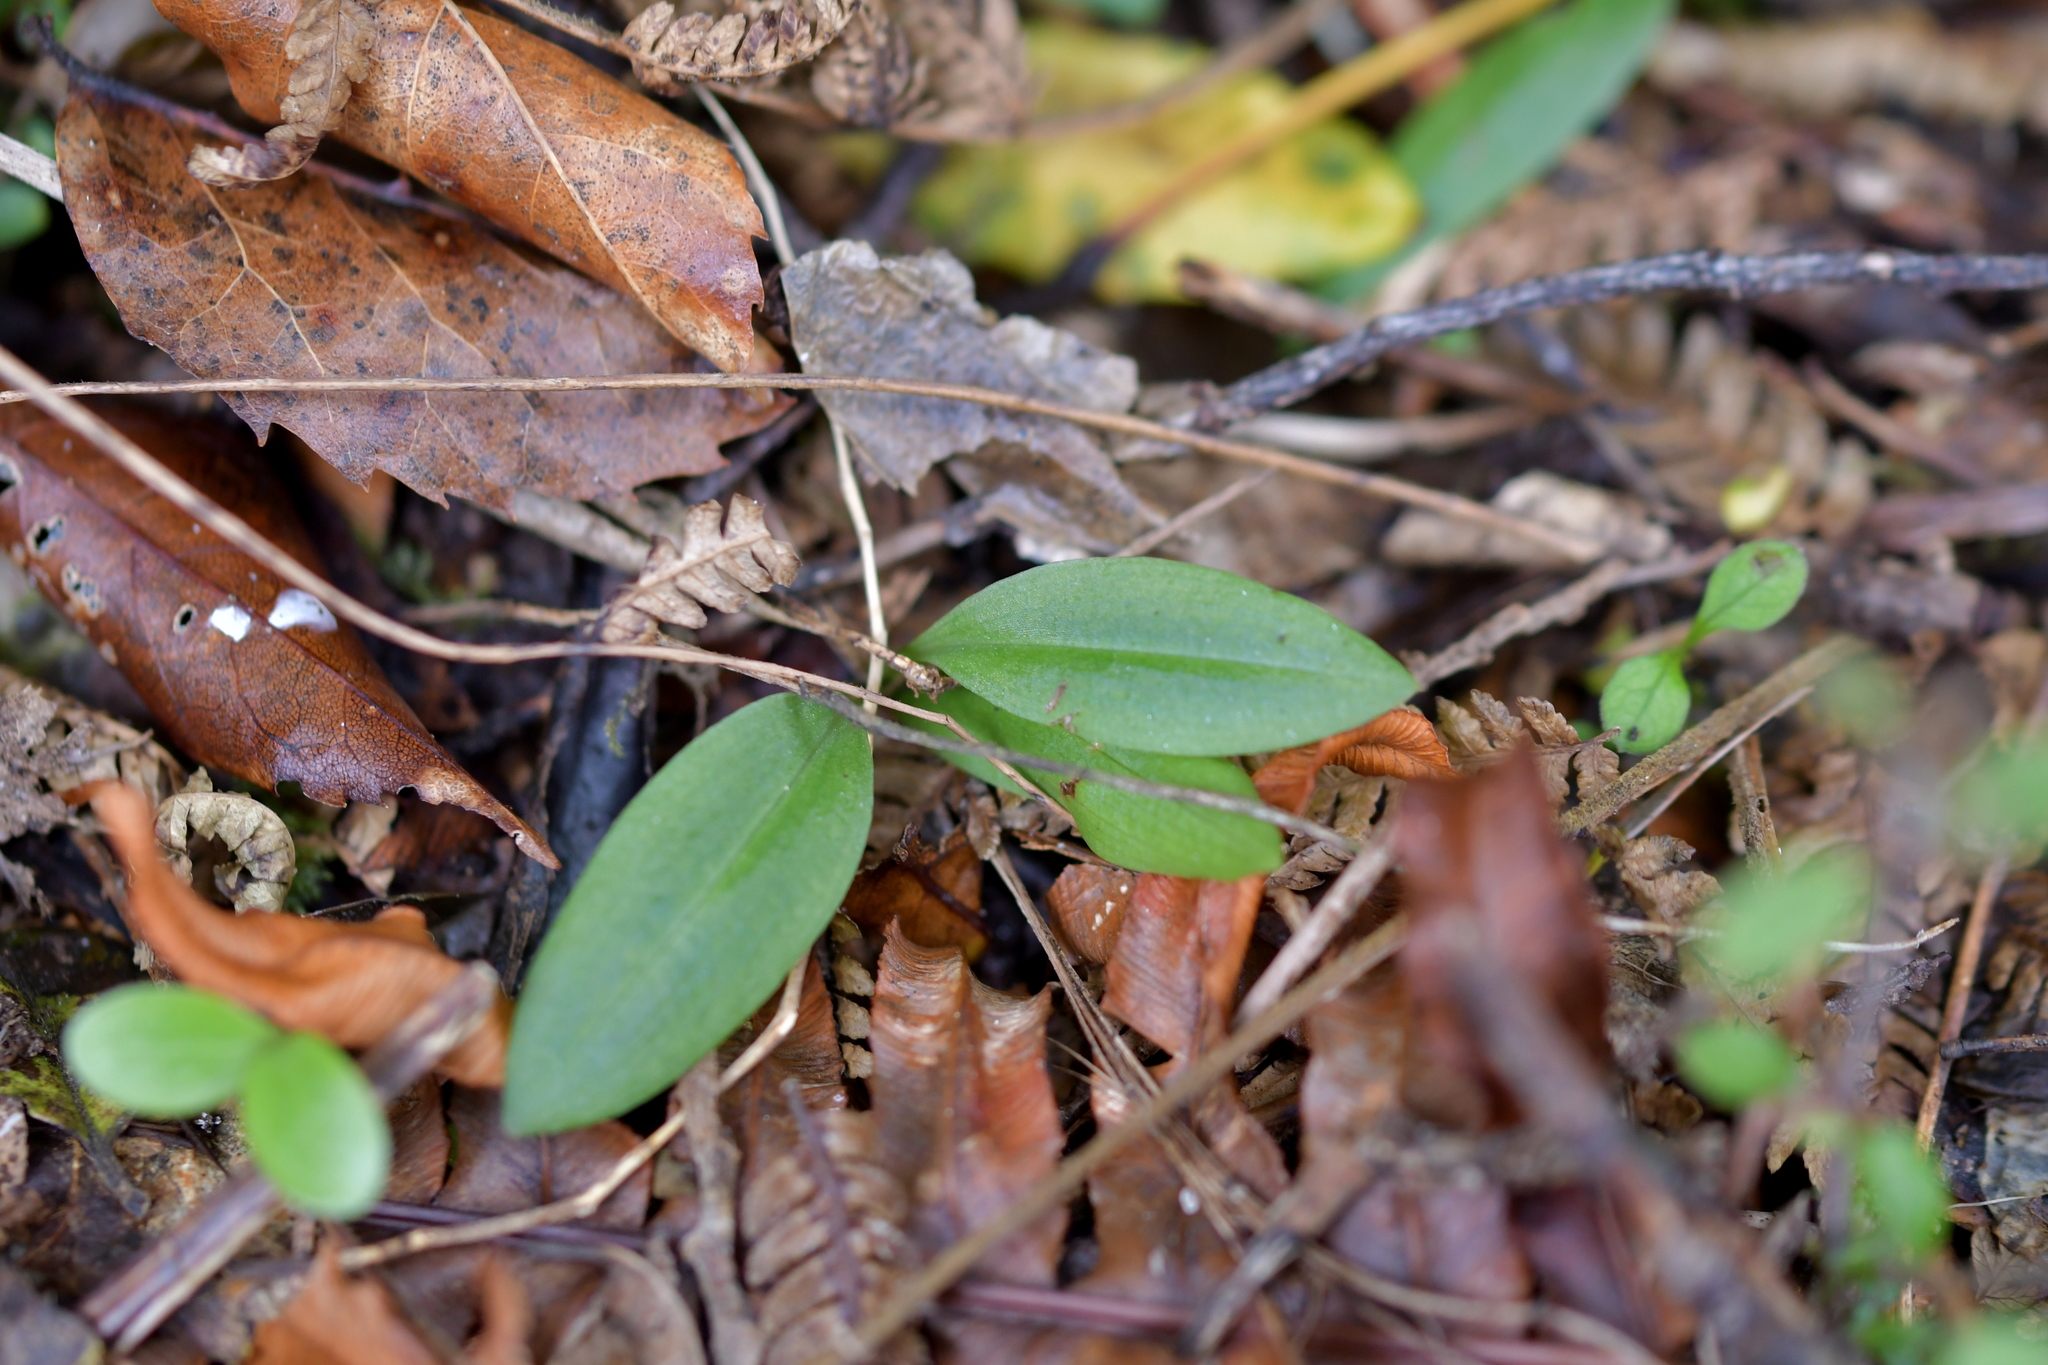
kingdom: Plantae
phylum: Tracheophyta
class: Liliopsida
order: Asparagales
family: Orchidaceae
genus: Chiloglottis
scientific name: Chiloglottis cornuta
